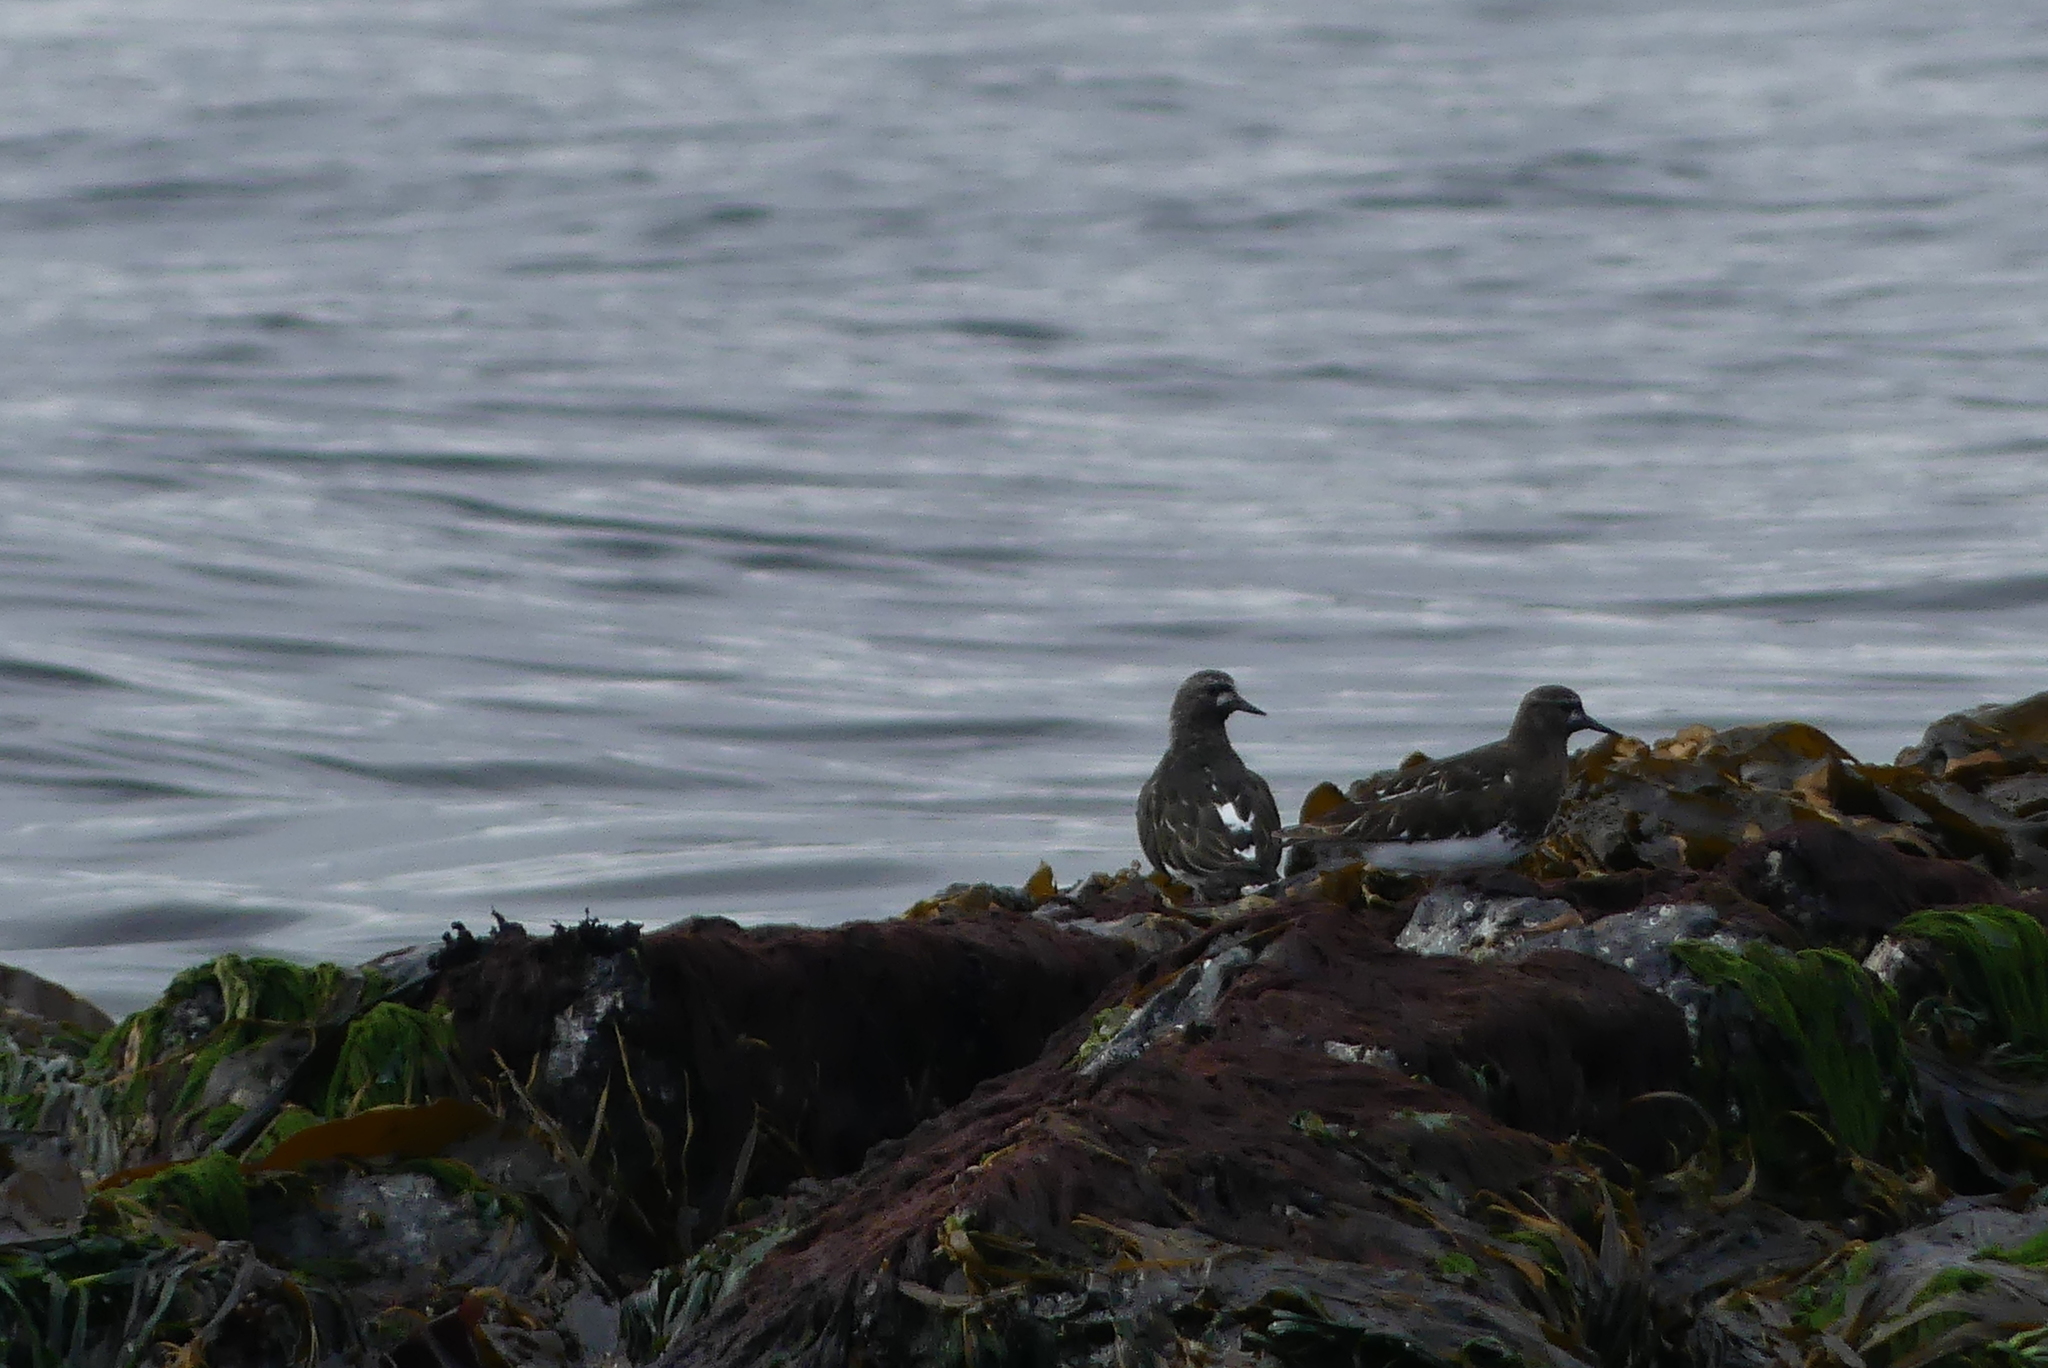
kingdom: Animalia
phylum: Chordata
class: Aves
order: Charadriiformes
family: Scolopacidae
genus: Arenaria
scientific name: Arenaria melanocephala
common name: Black turnstone
